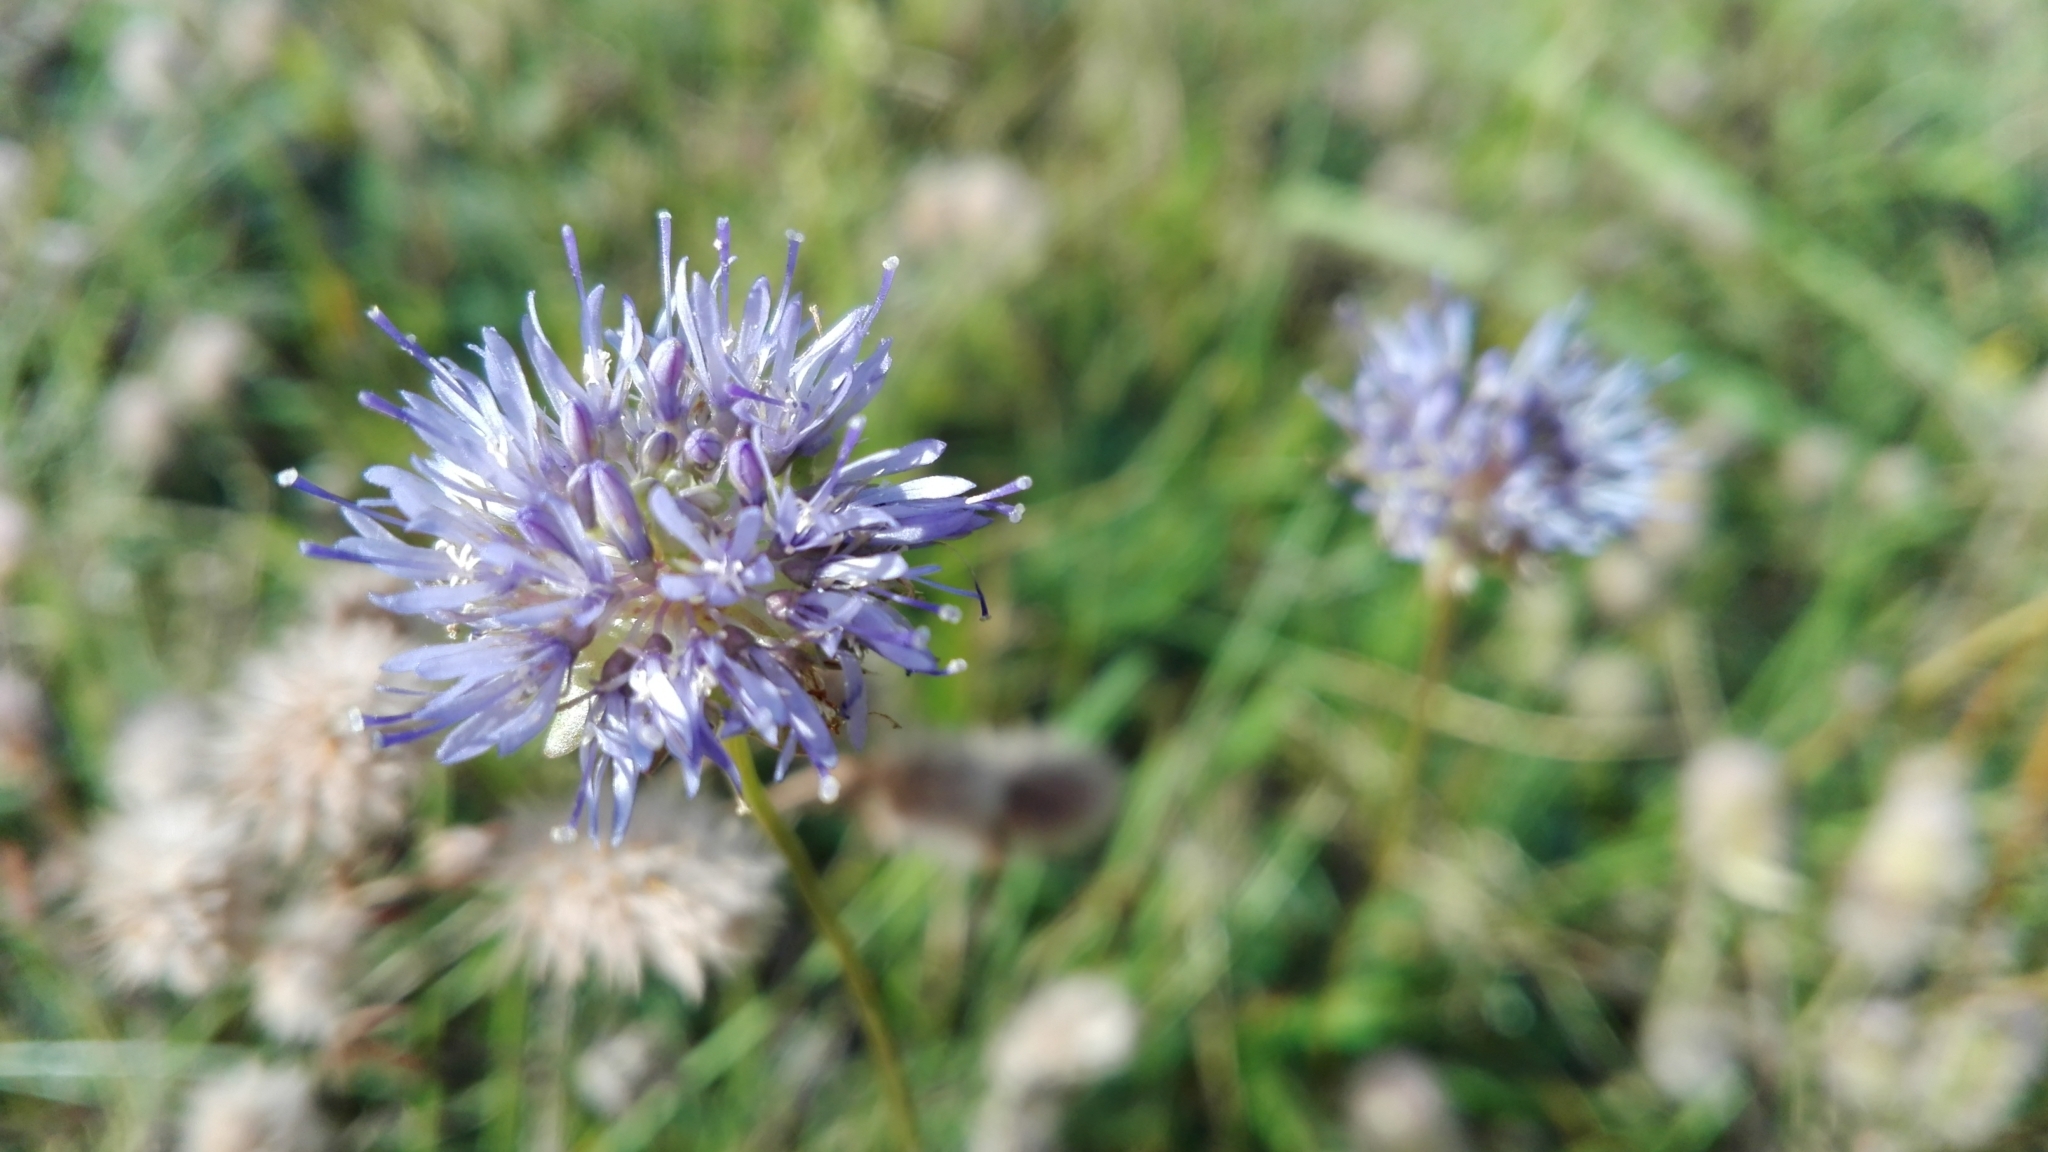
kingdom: Plantae
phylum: Tracheophyta
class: Magnoliopsida
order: Asterales
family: Campanulaceae
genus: Jasione
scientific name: Jasione montana
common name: Sheep's-bit
